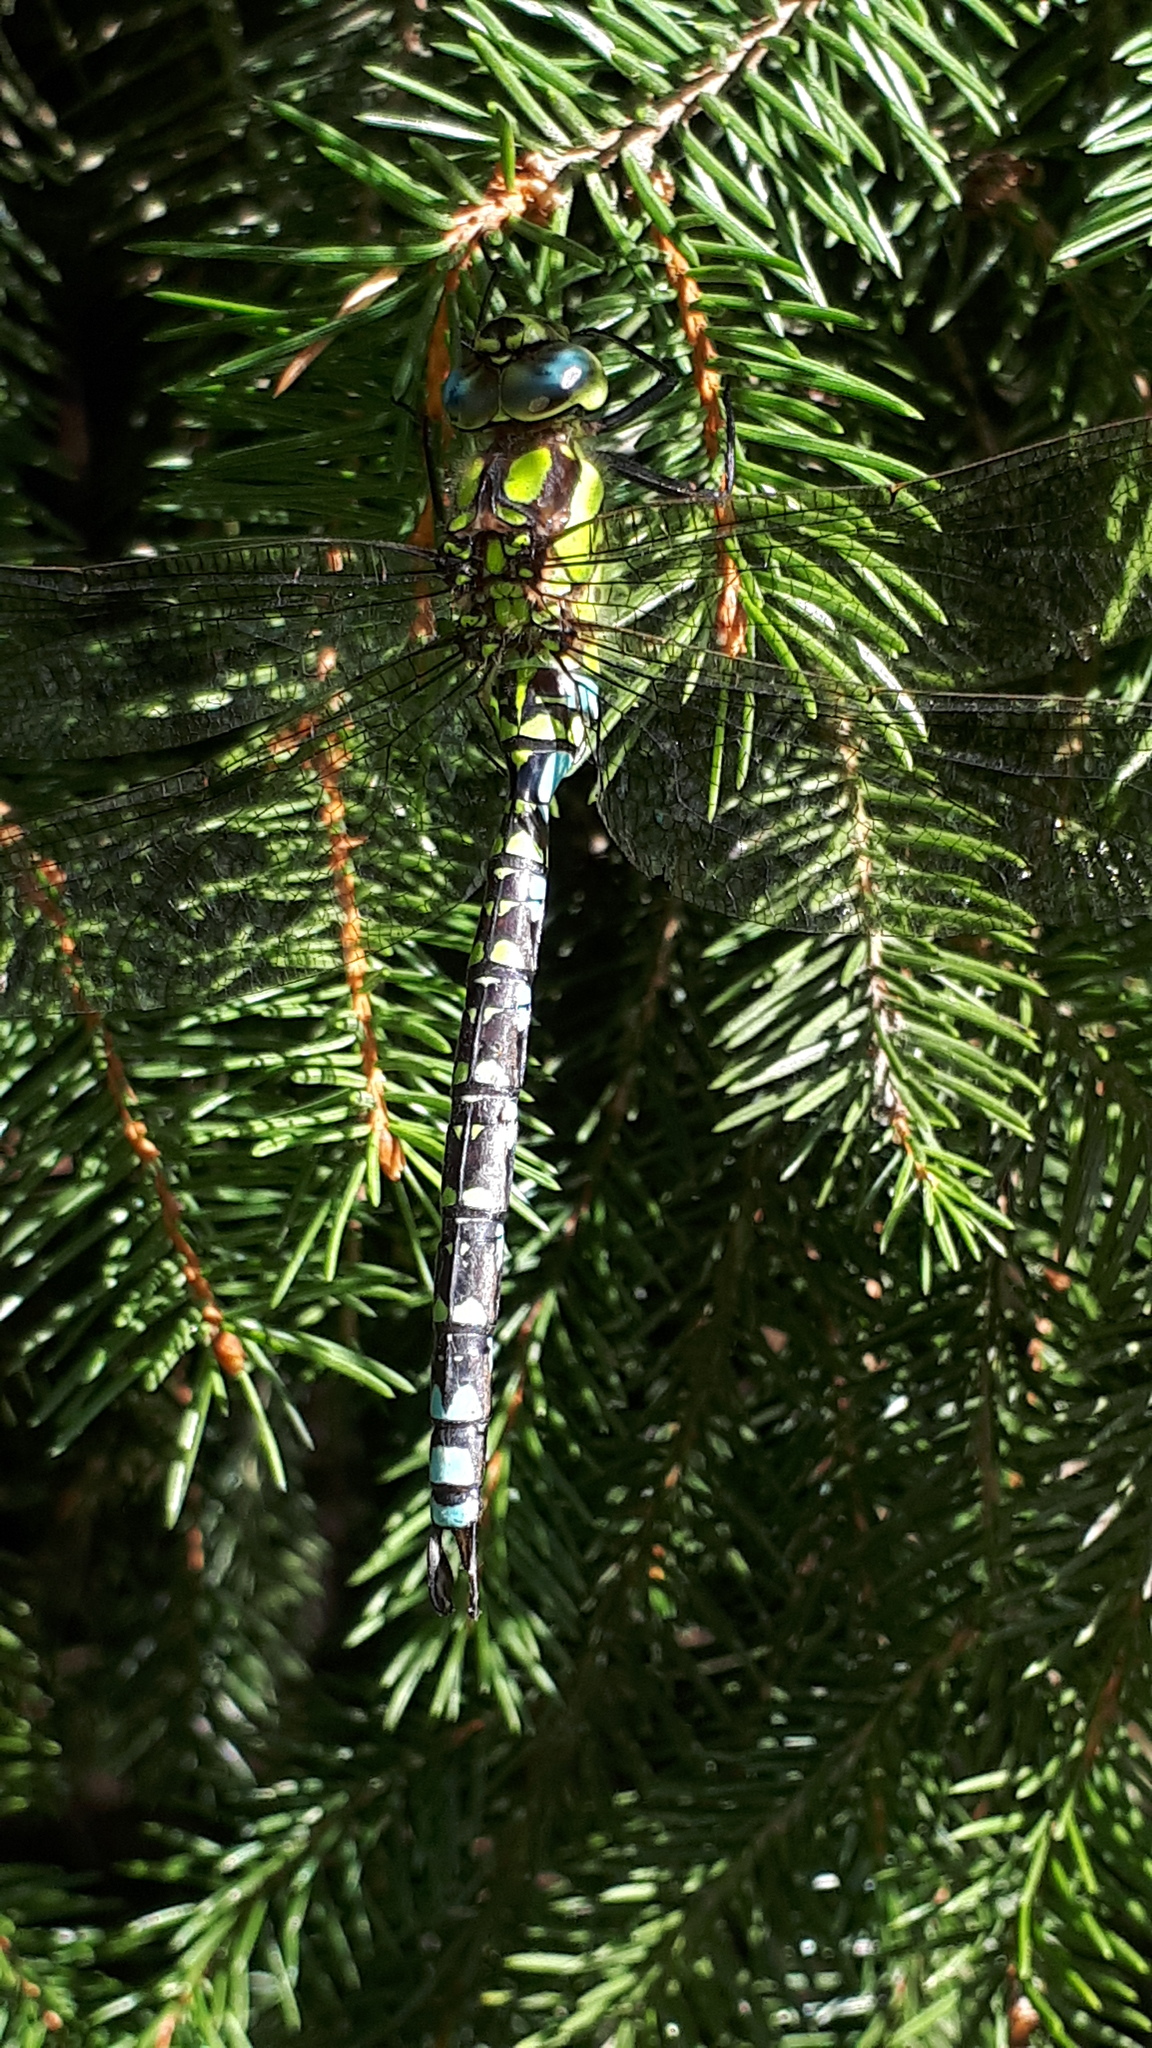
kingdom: Animalia
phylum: Arthropoda
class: Insecta
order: Odonata
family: Aeshnidae
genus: Aeshna
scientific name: Aeshna cyanea
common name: Southern hawker
